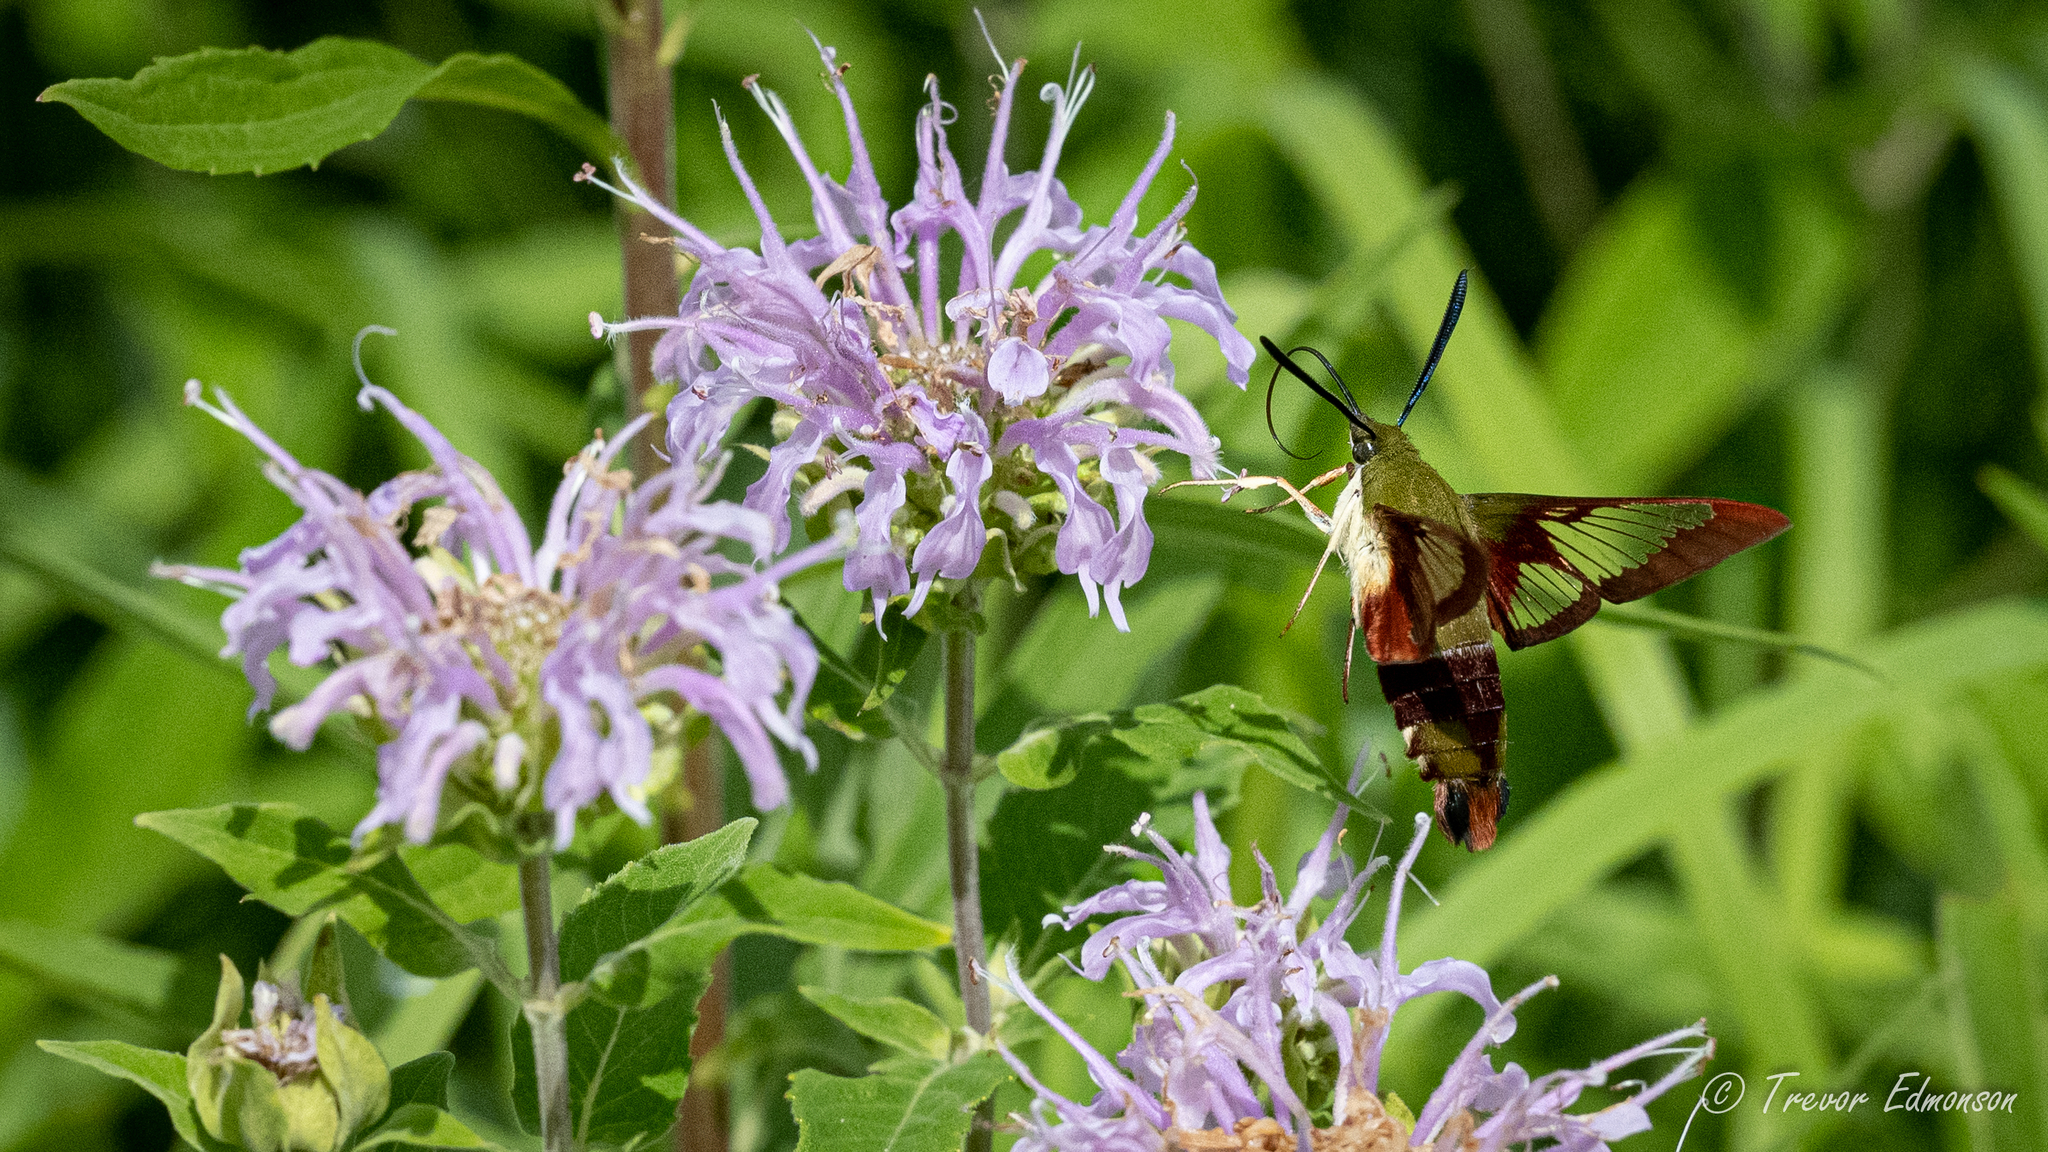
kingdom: Animalia
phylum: Arthropoda
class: Insecta
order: Lepidoptera
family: Sphingidae
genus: Hemaris
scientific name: Hemaris thysbe
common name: Common clear-wing
